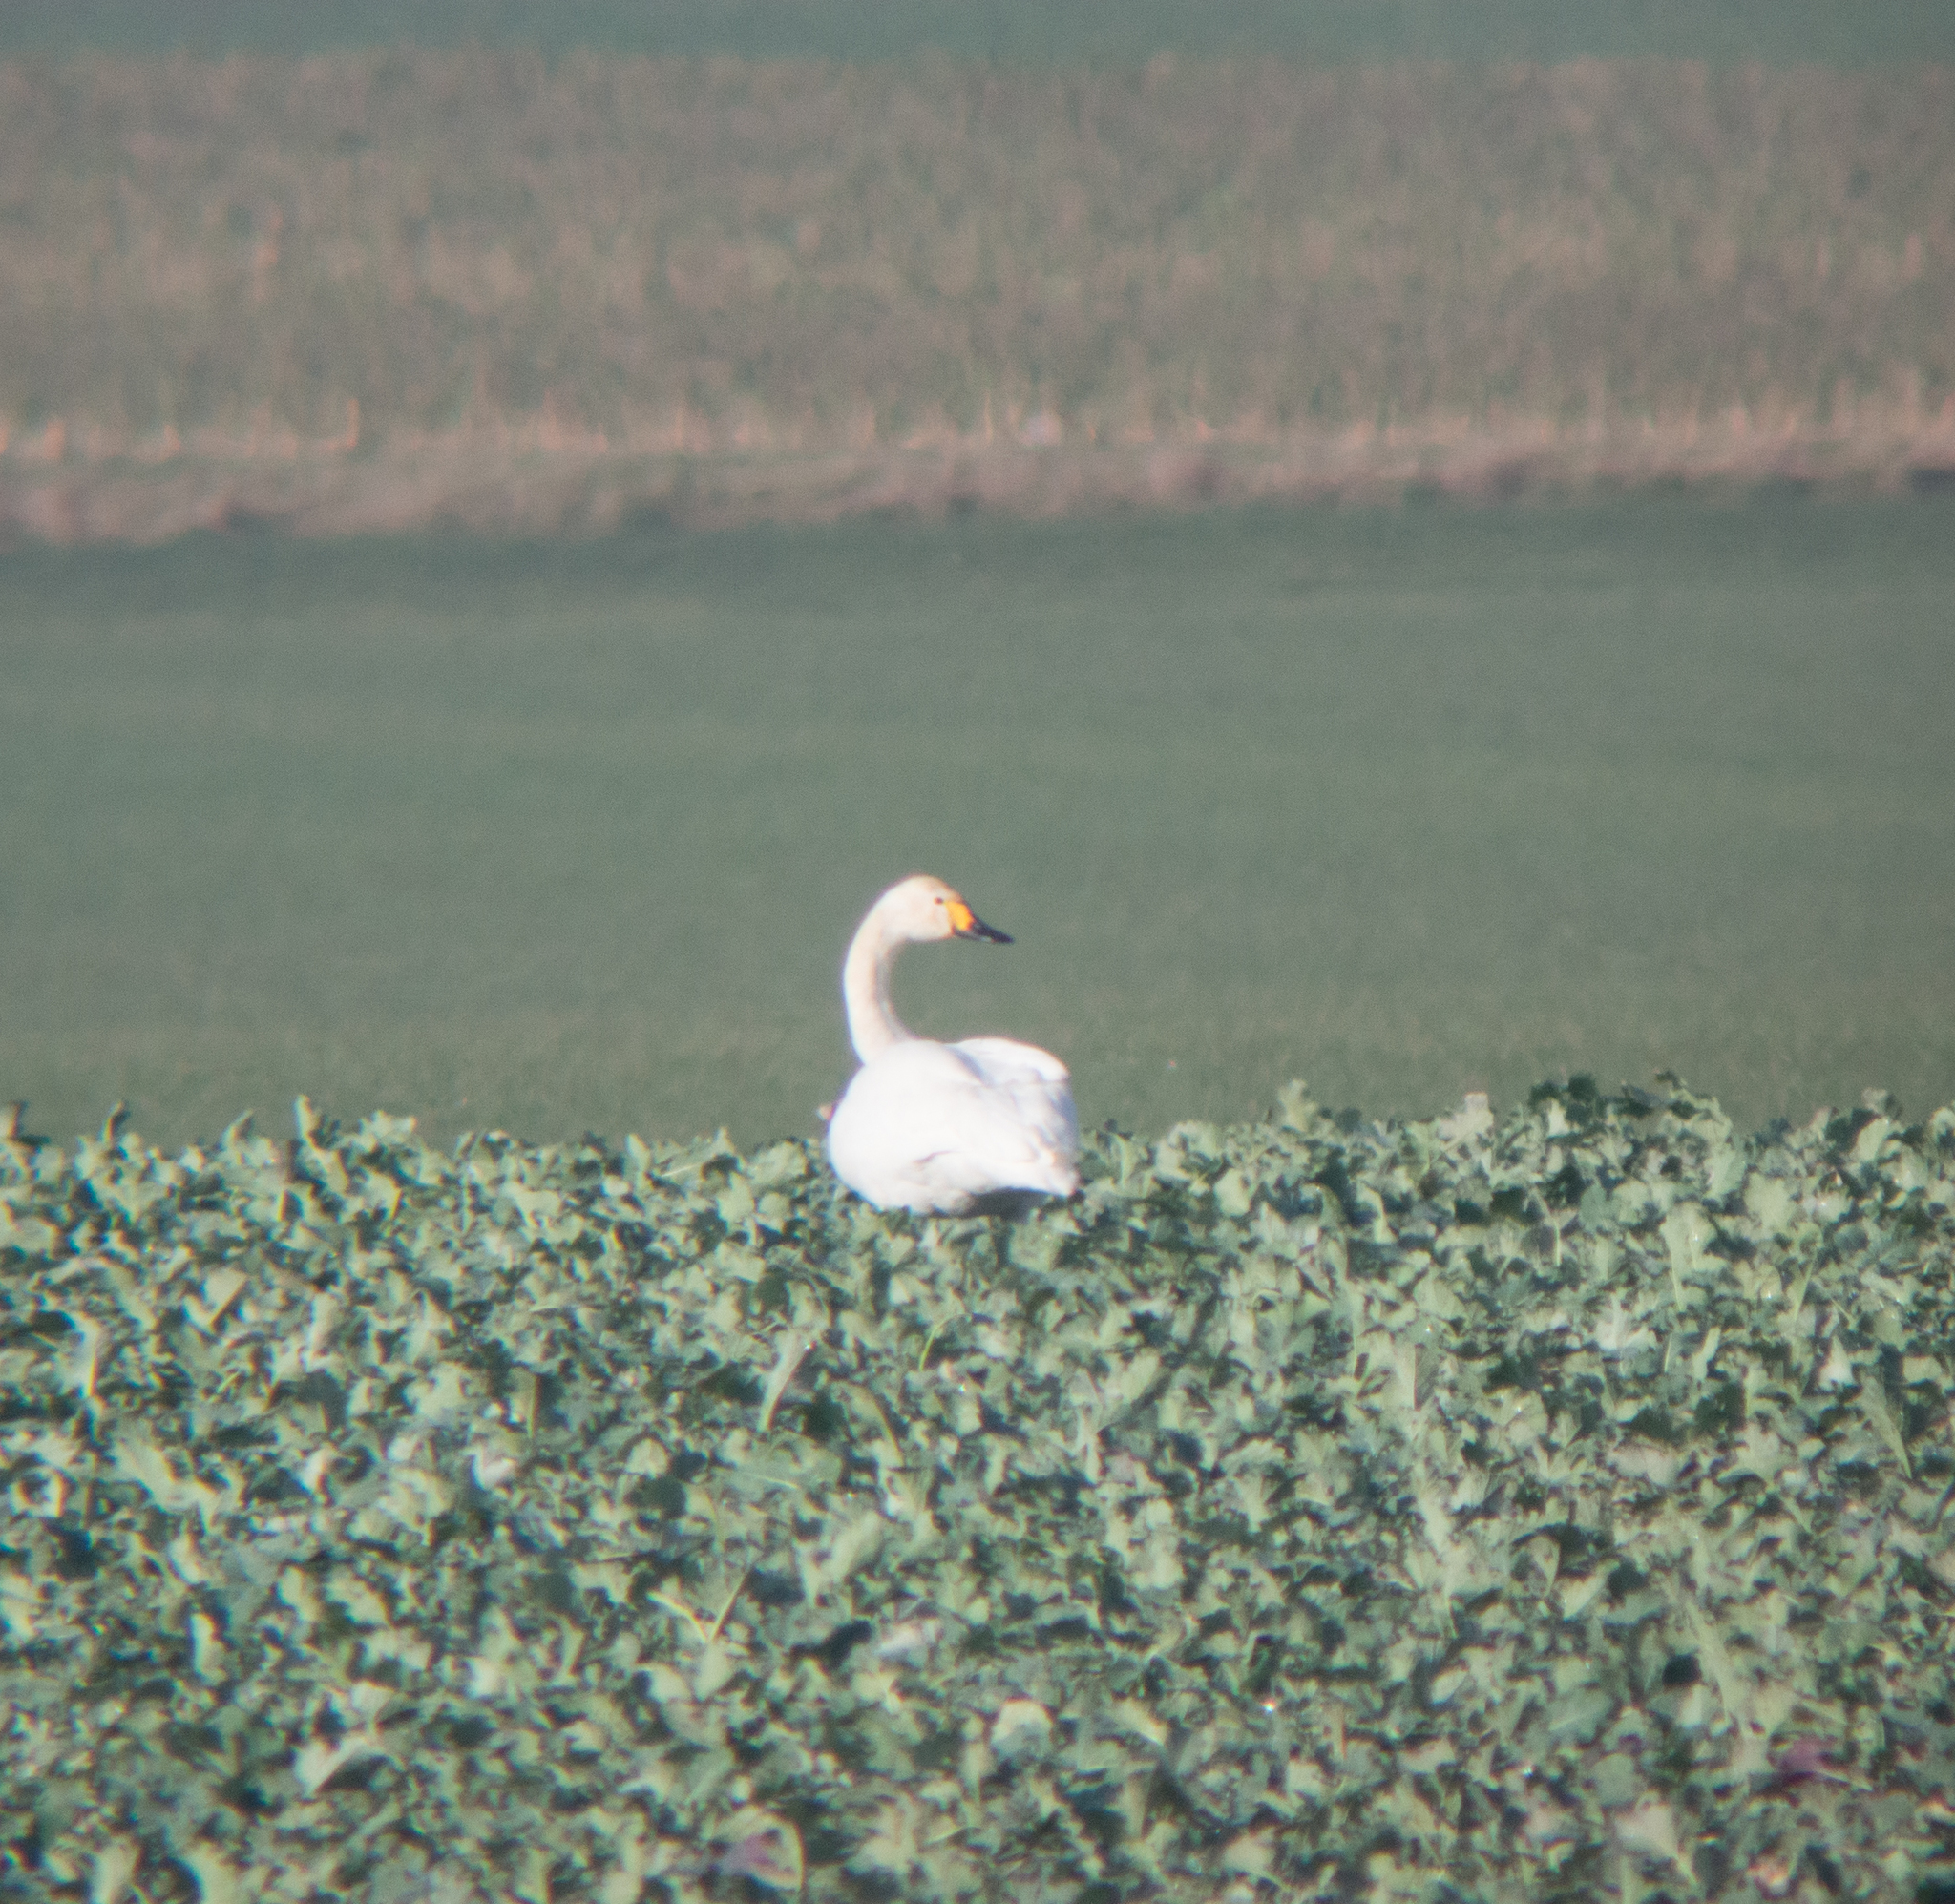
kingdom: Animalia
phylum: Chordata
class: Aves
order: Anseriformes
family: Anatidae
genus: Cygnus
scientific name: Cygnus columbianus
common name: Tundra swan
